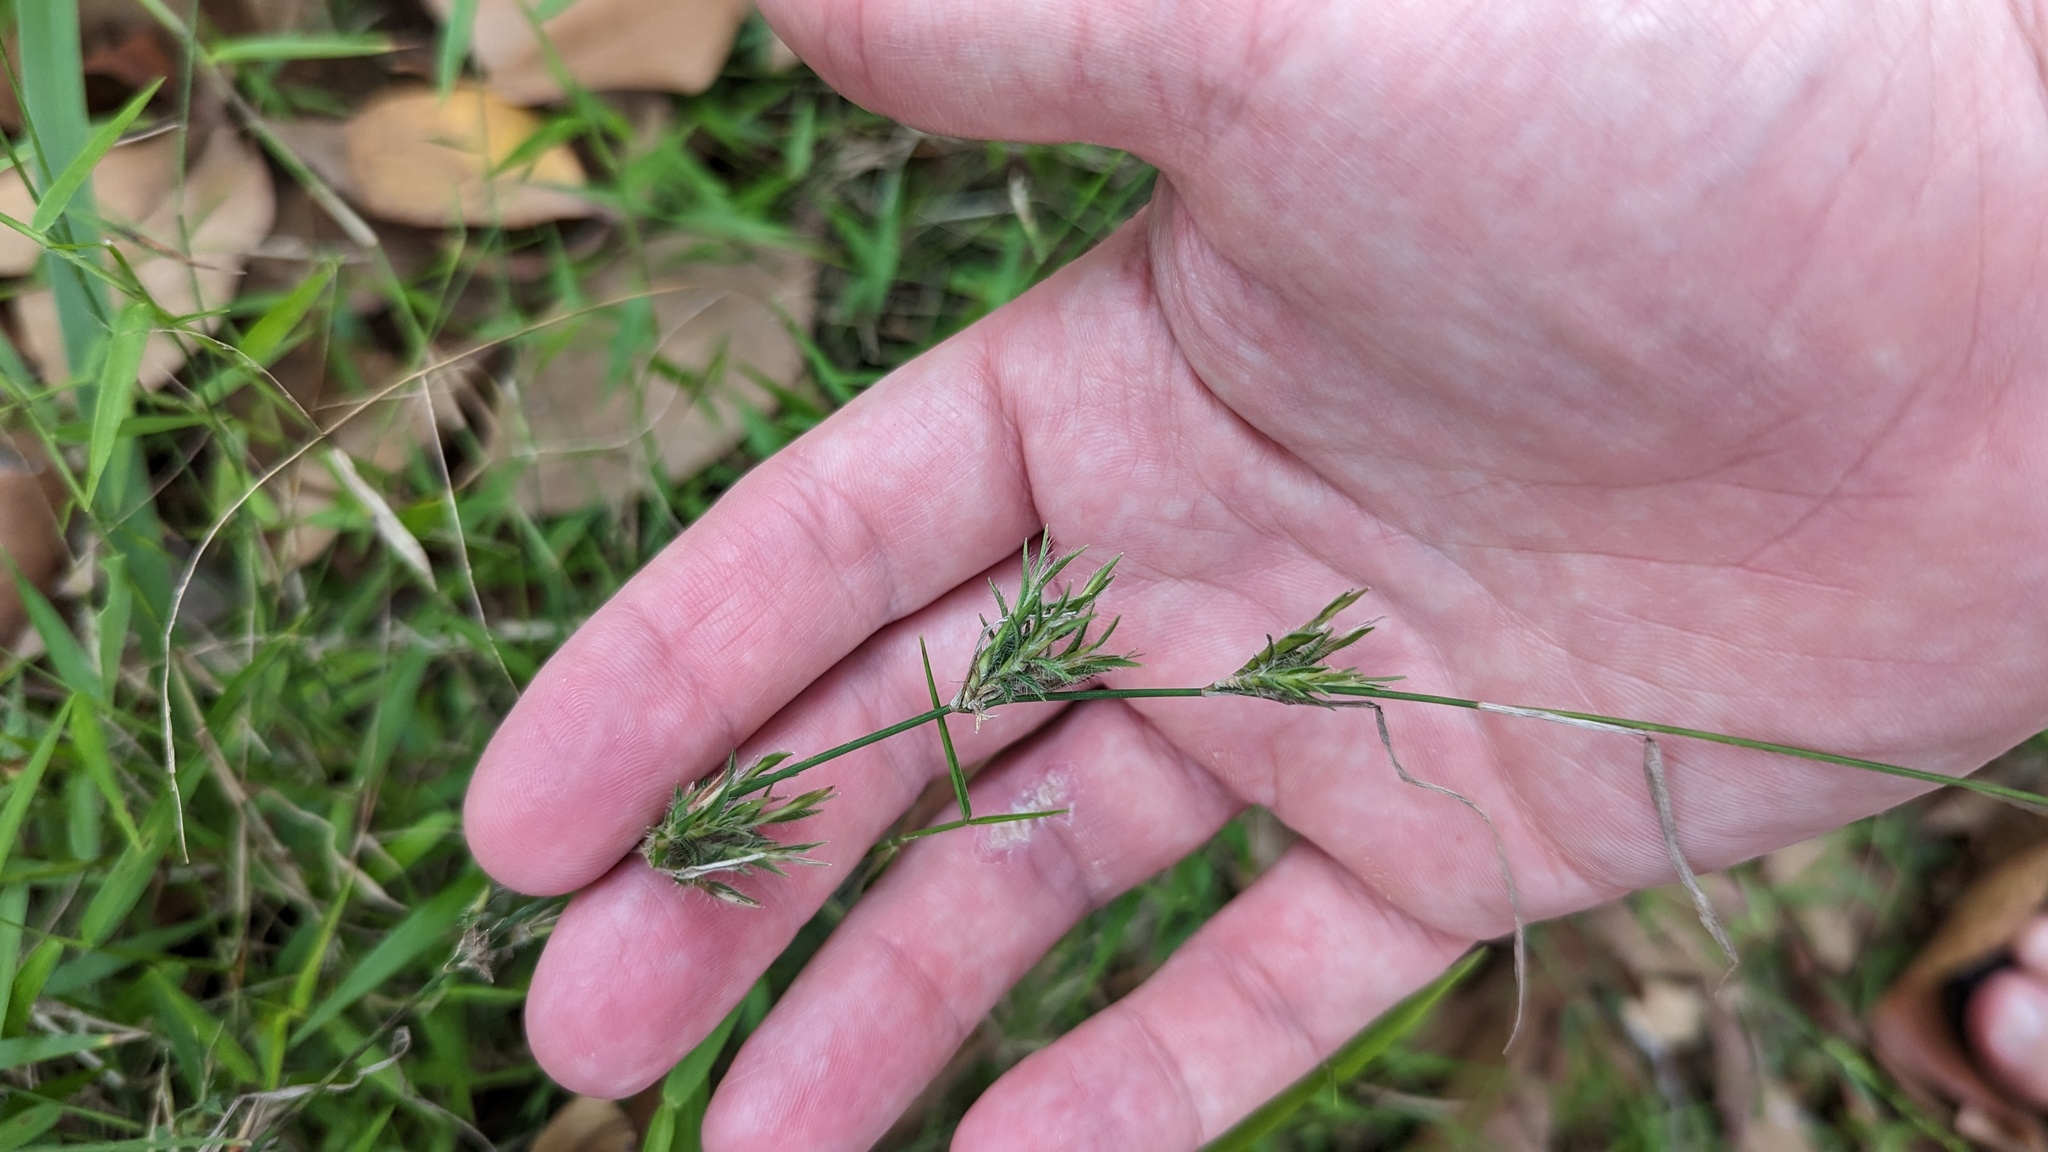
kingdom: Plantae
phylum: Tracheophyta
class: Liliopsida
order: Poales
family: Poaceae
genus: Entolasia
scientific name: Entolasia stricta
